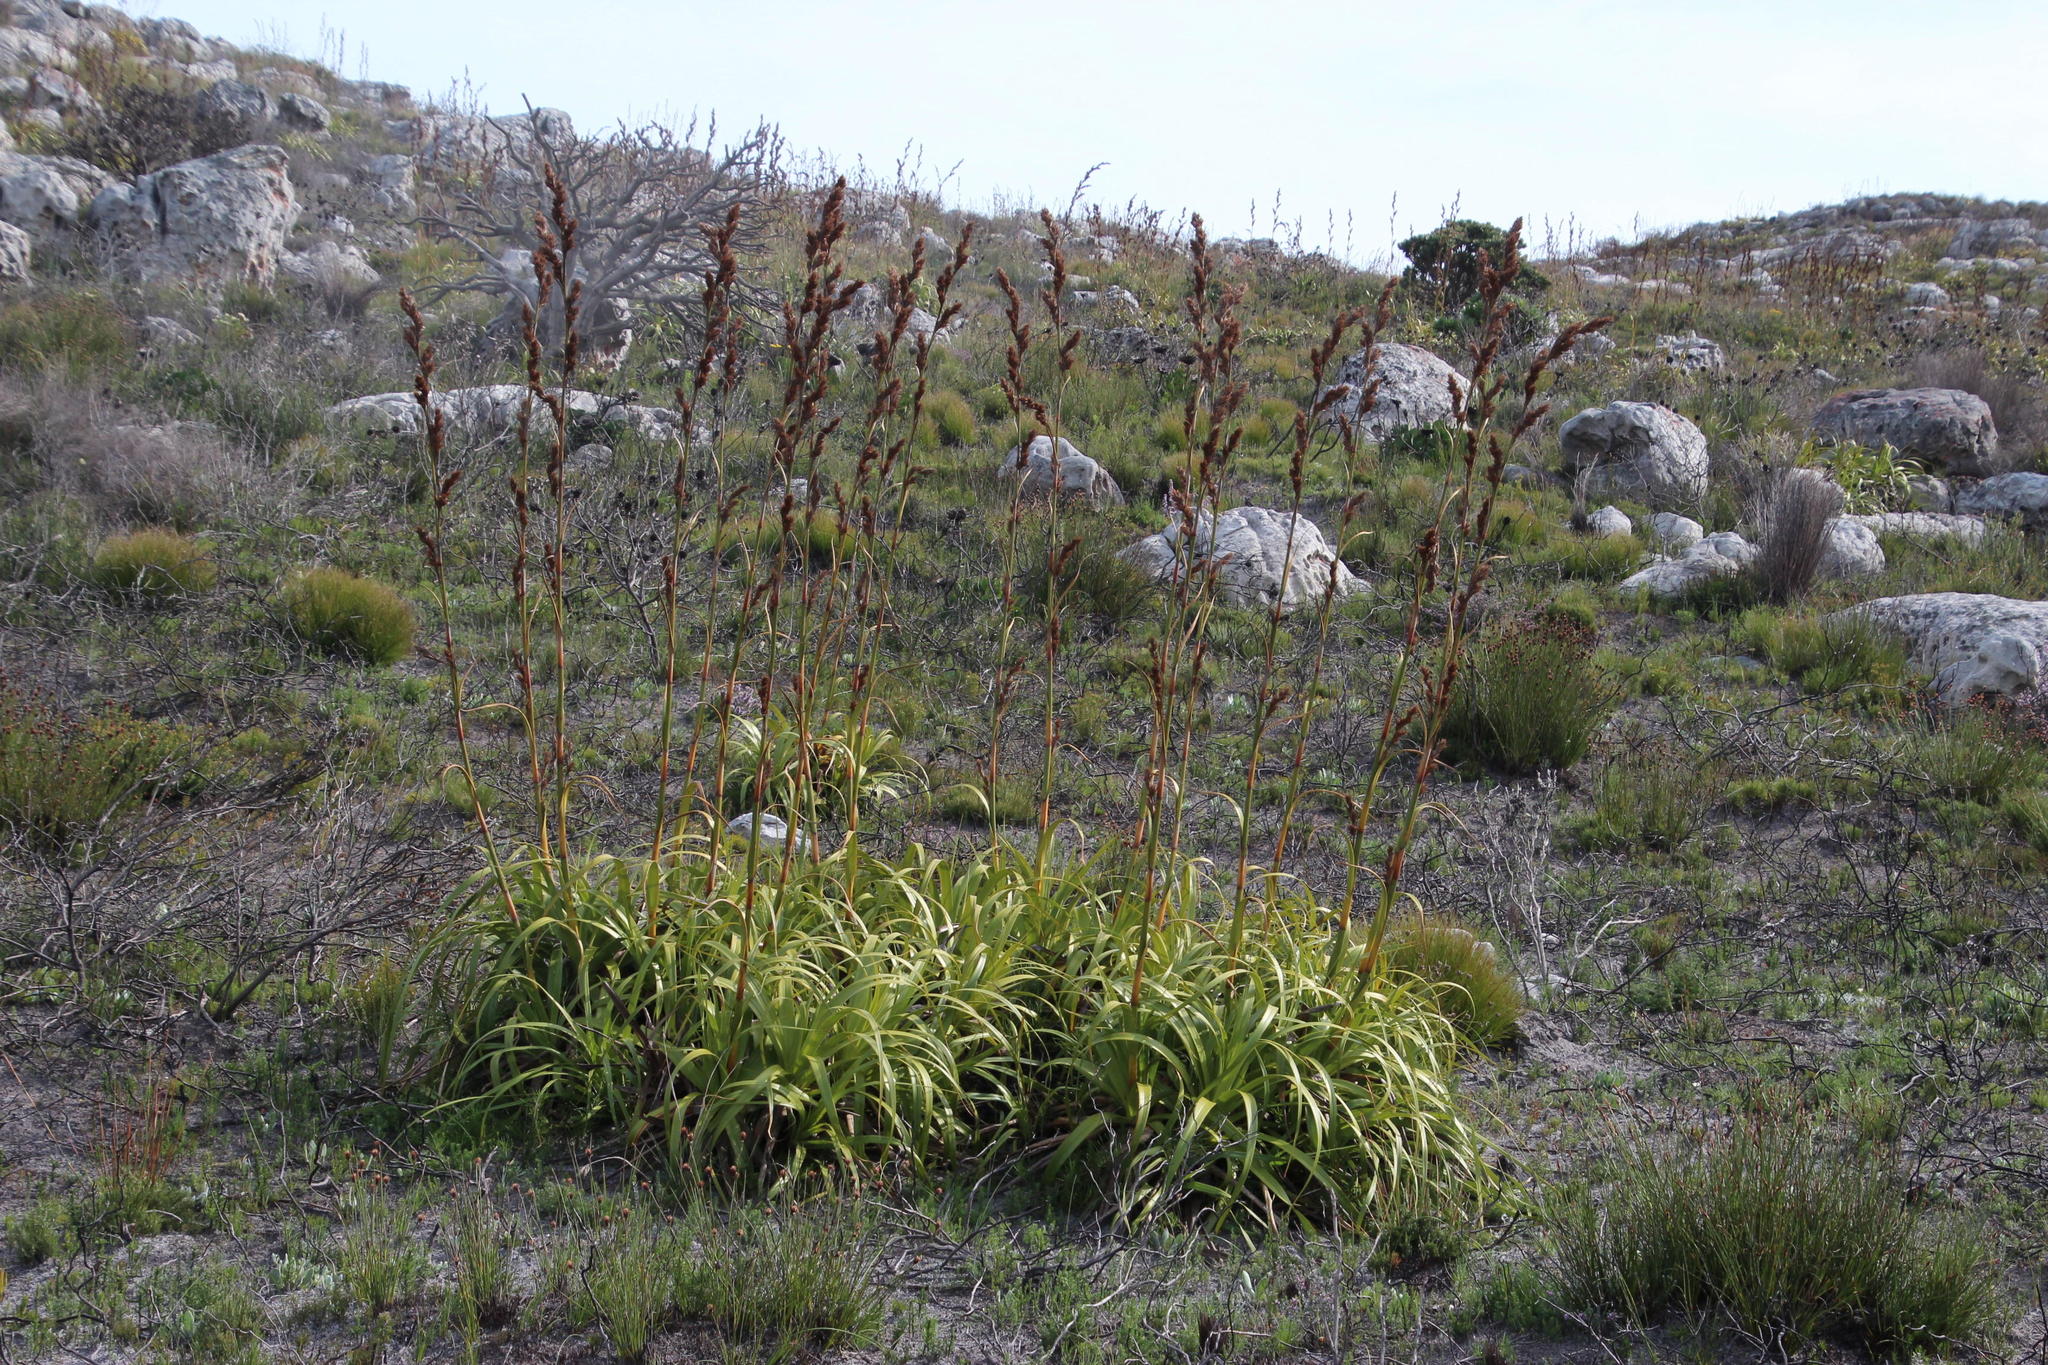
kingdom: Plantae
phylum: Tracheophyta
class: Liliopsida
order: Poales
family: Cyperaceae
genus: Tetraria
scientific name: Tetraria thermalis
